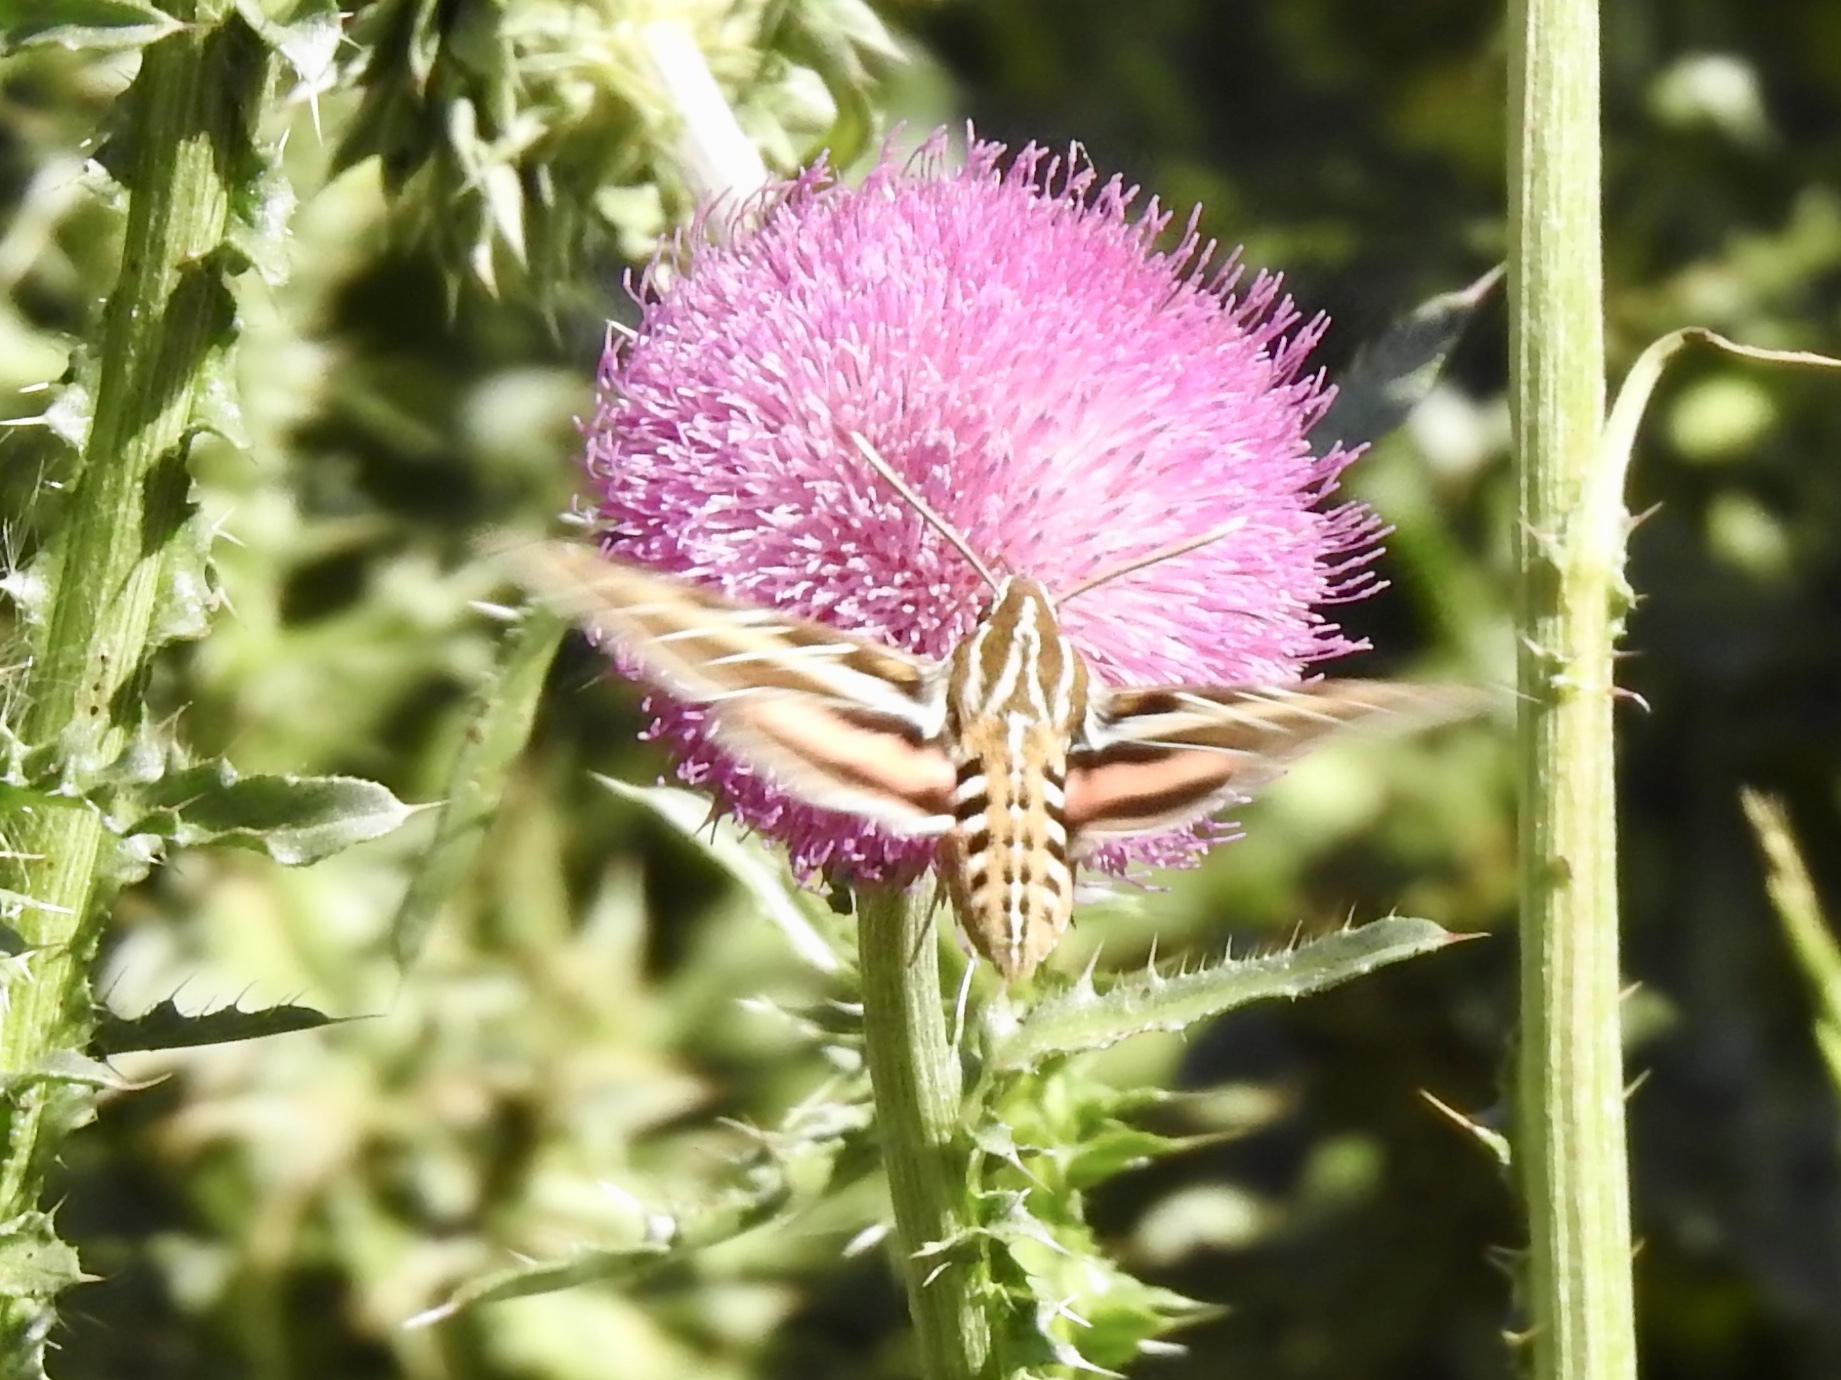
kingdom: Animalia
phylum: Arthropoda
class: Insecta
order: Lepidoptera
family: Sphingidae
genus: Hyles
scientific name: Hyles lineata
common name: White-lined sphinx
